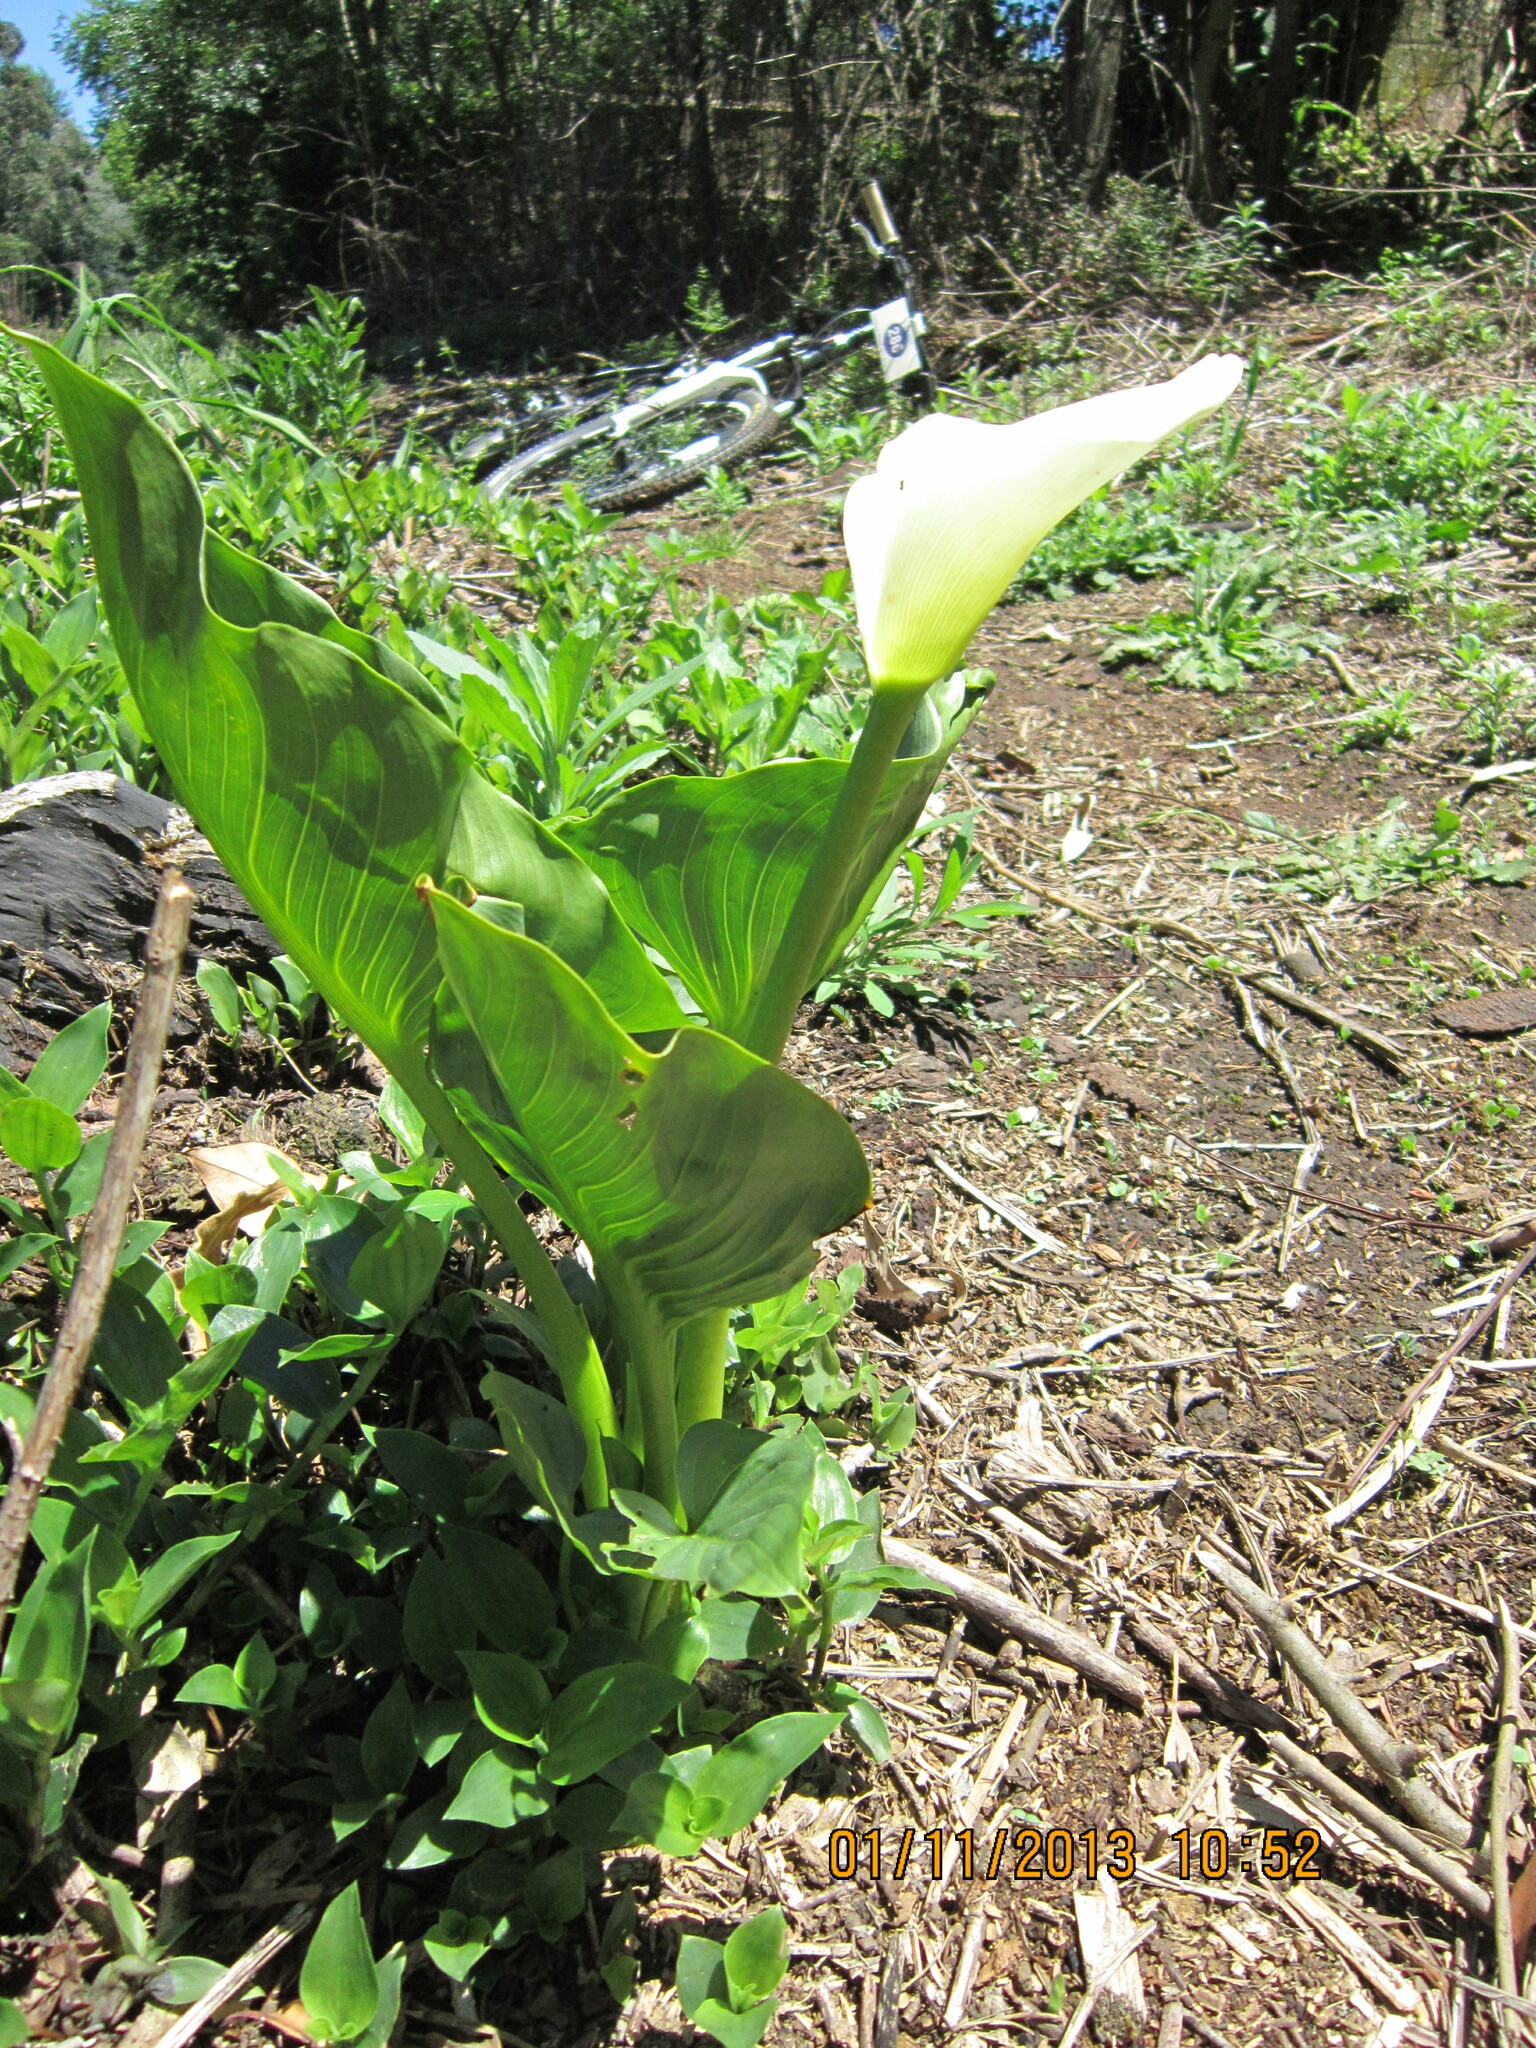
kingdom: Plantae
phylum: Tracheophyta
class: Liliopsida
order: Alismatales
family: Araceae
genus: Zantedeschia
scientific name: Zantedeschia aethiopica
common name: Altar-lily
